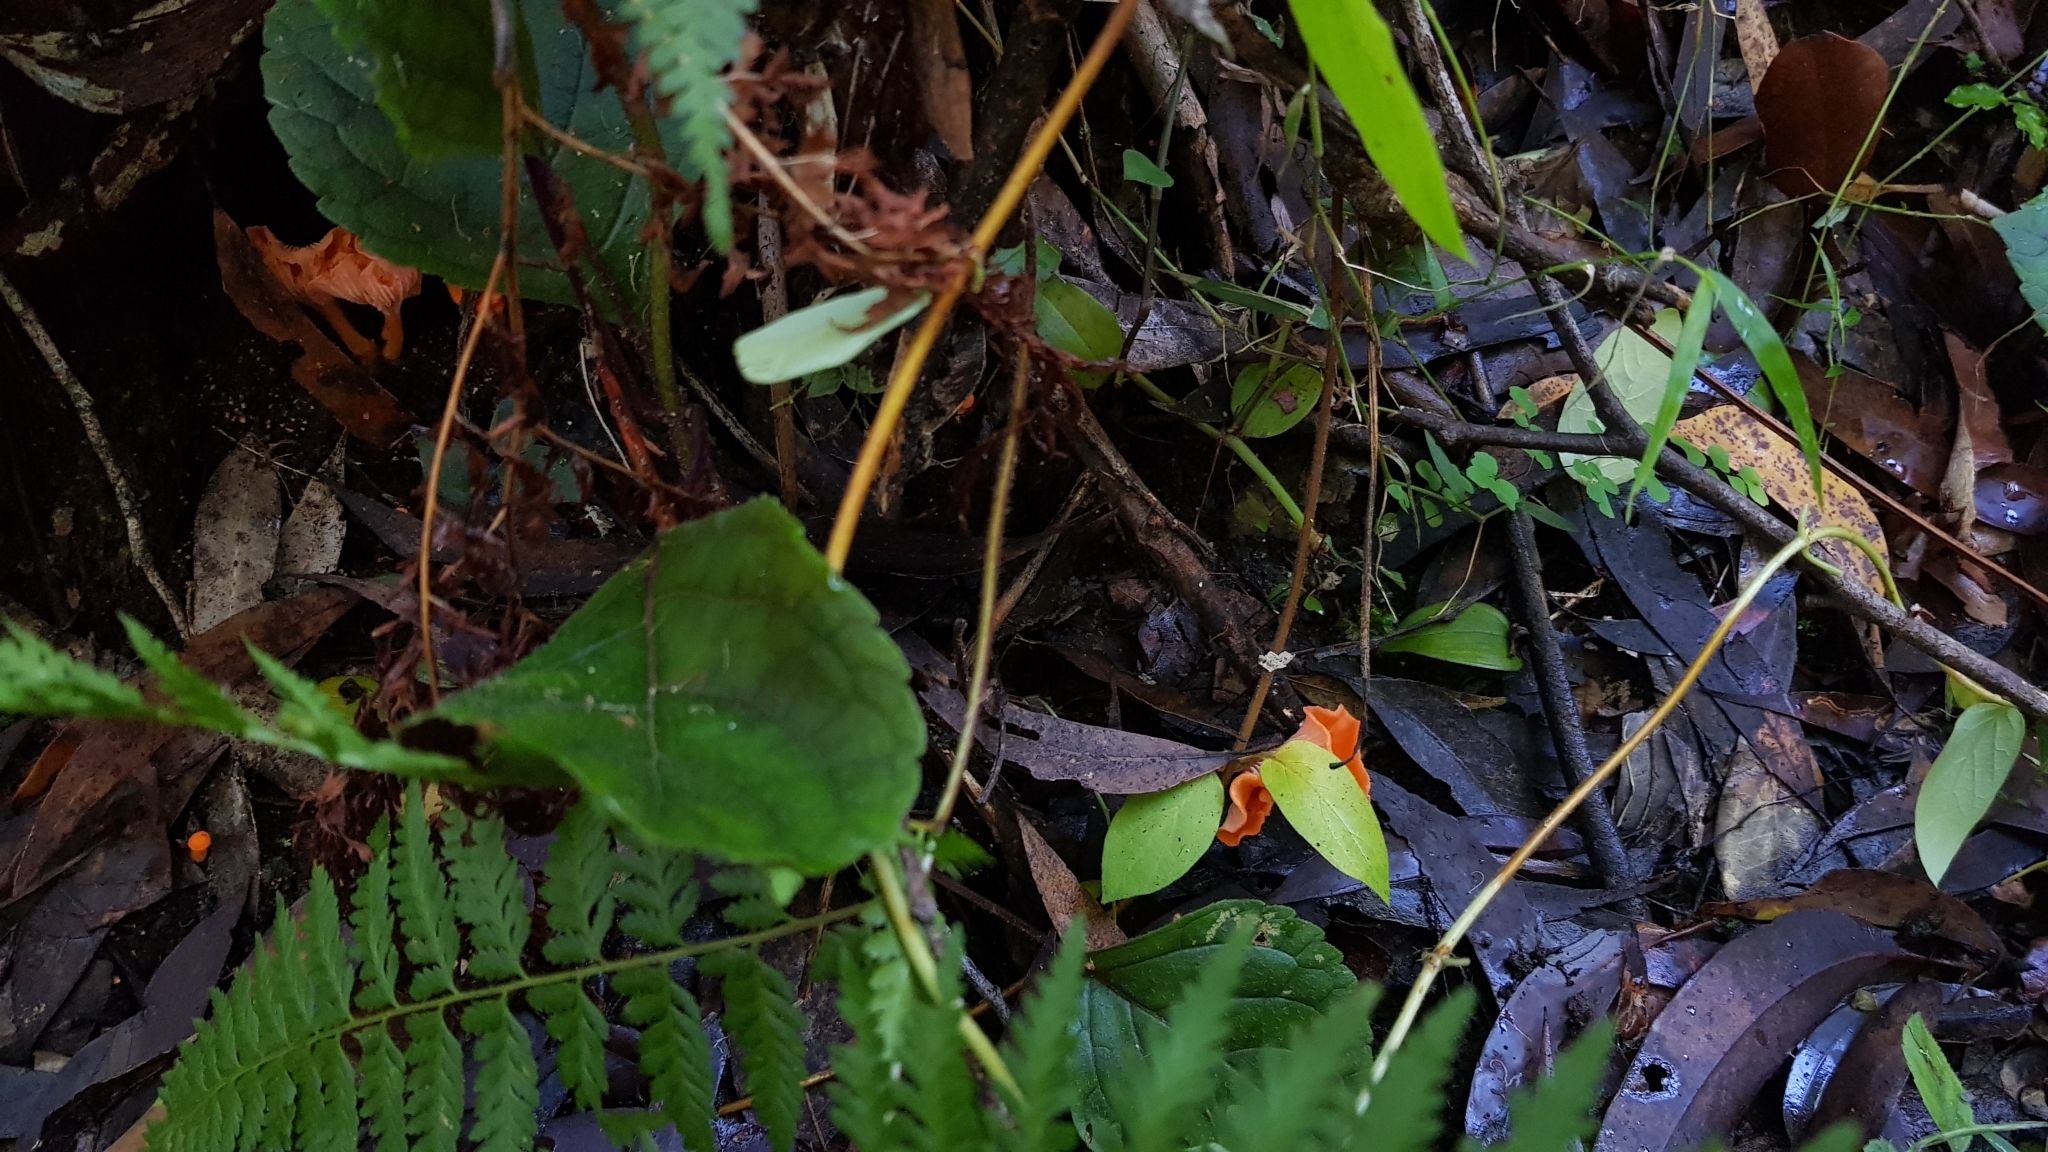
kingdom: Fungi
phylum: Basidiomycota
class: Agaricomycetes
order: Cantharellales
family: Hydnaceae
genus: Cantharellus
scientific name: Cantharellus
